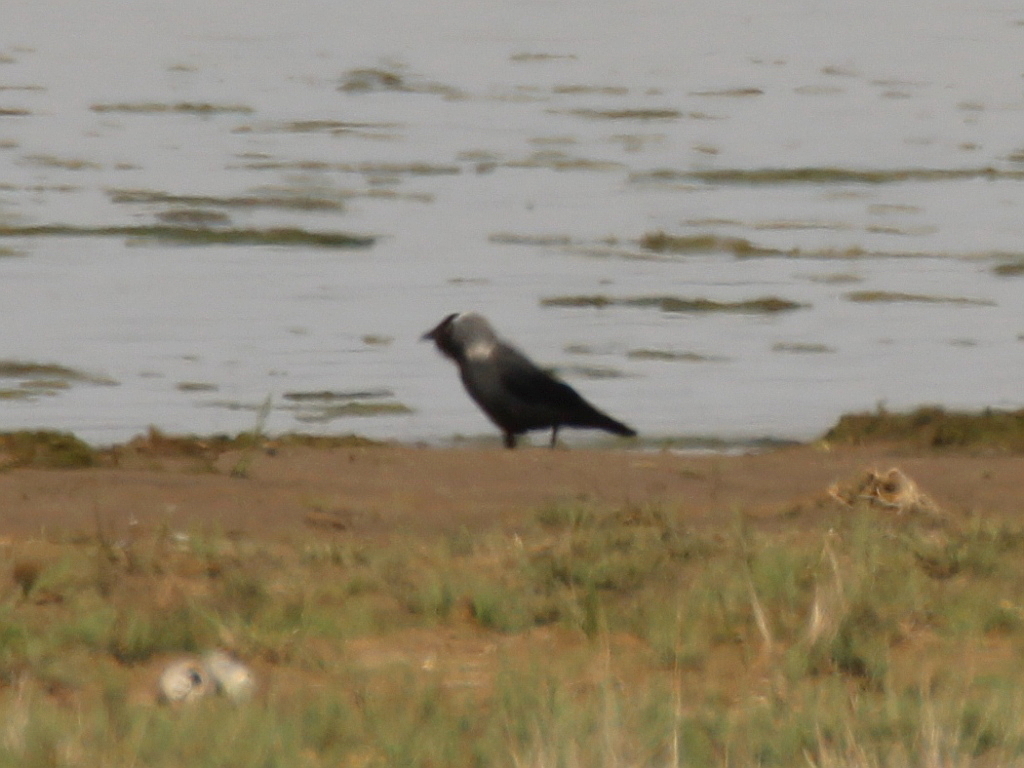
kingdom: Animalia
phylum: Chordata
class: Aves
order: Passeriformes
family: Corvidae
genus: Coloeus
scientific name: Coloeus monedula
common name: Western jackdaw
